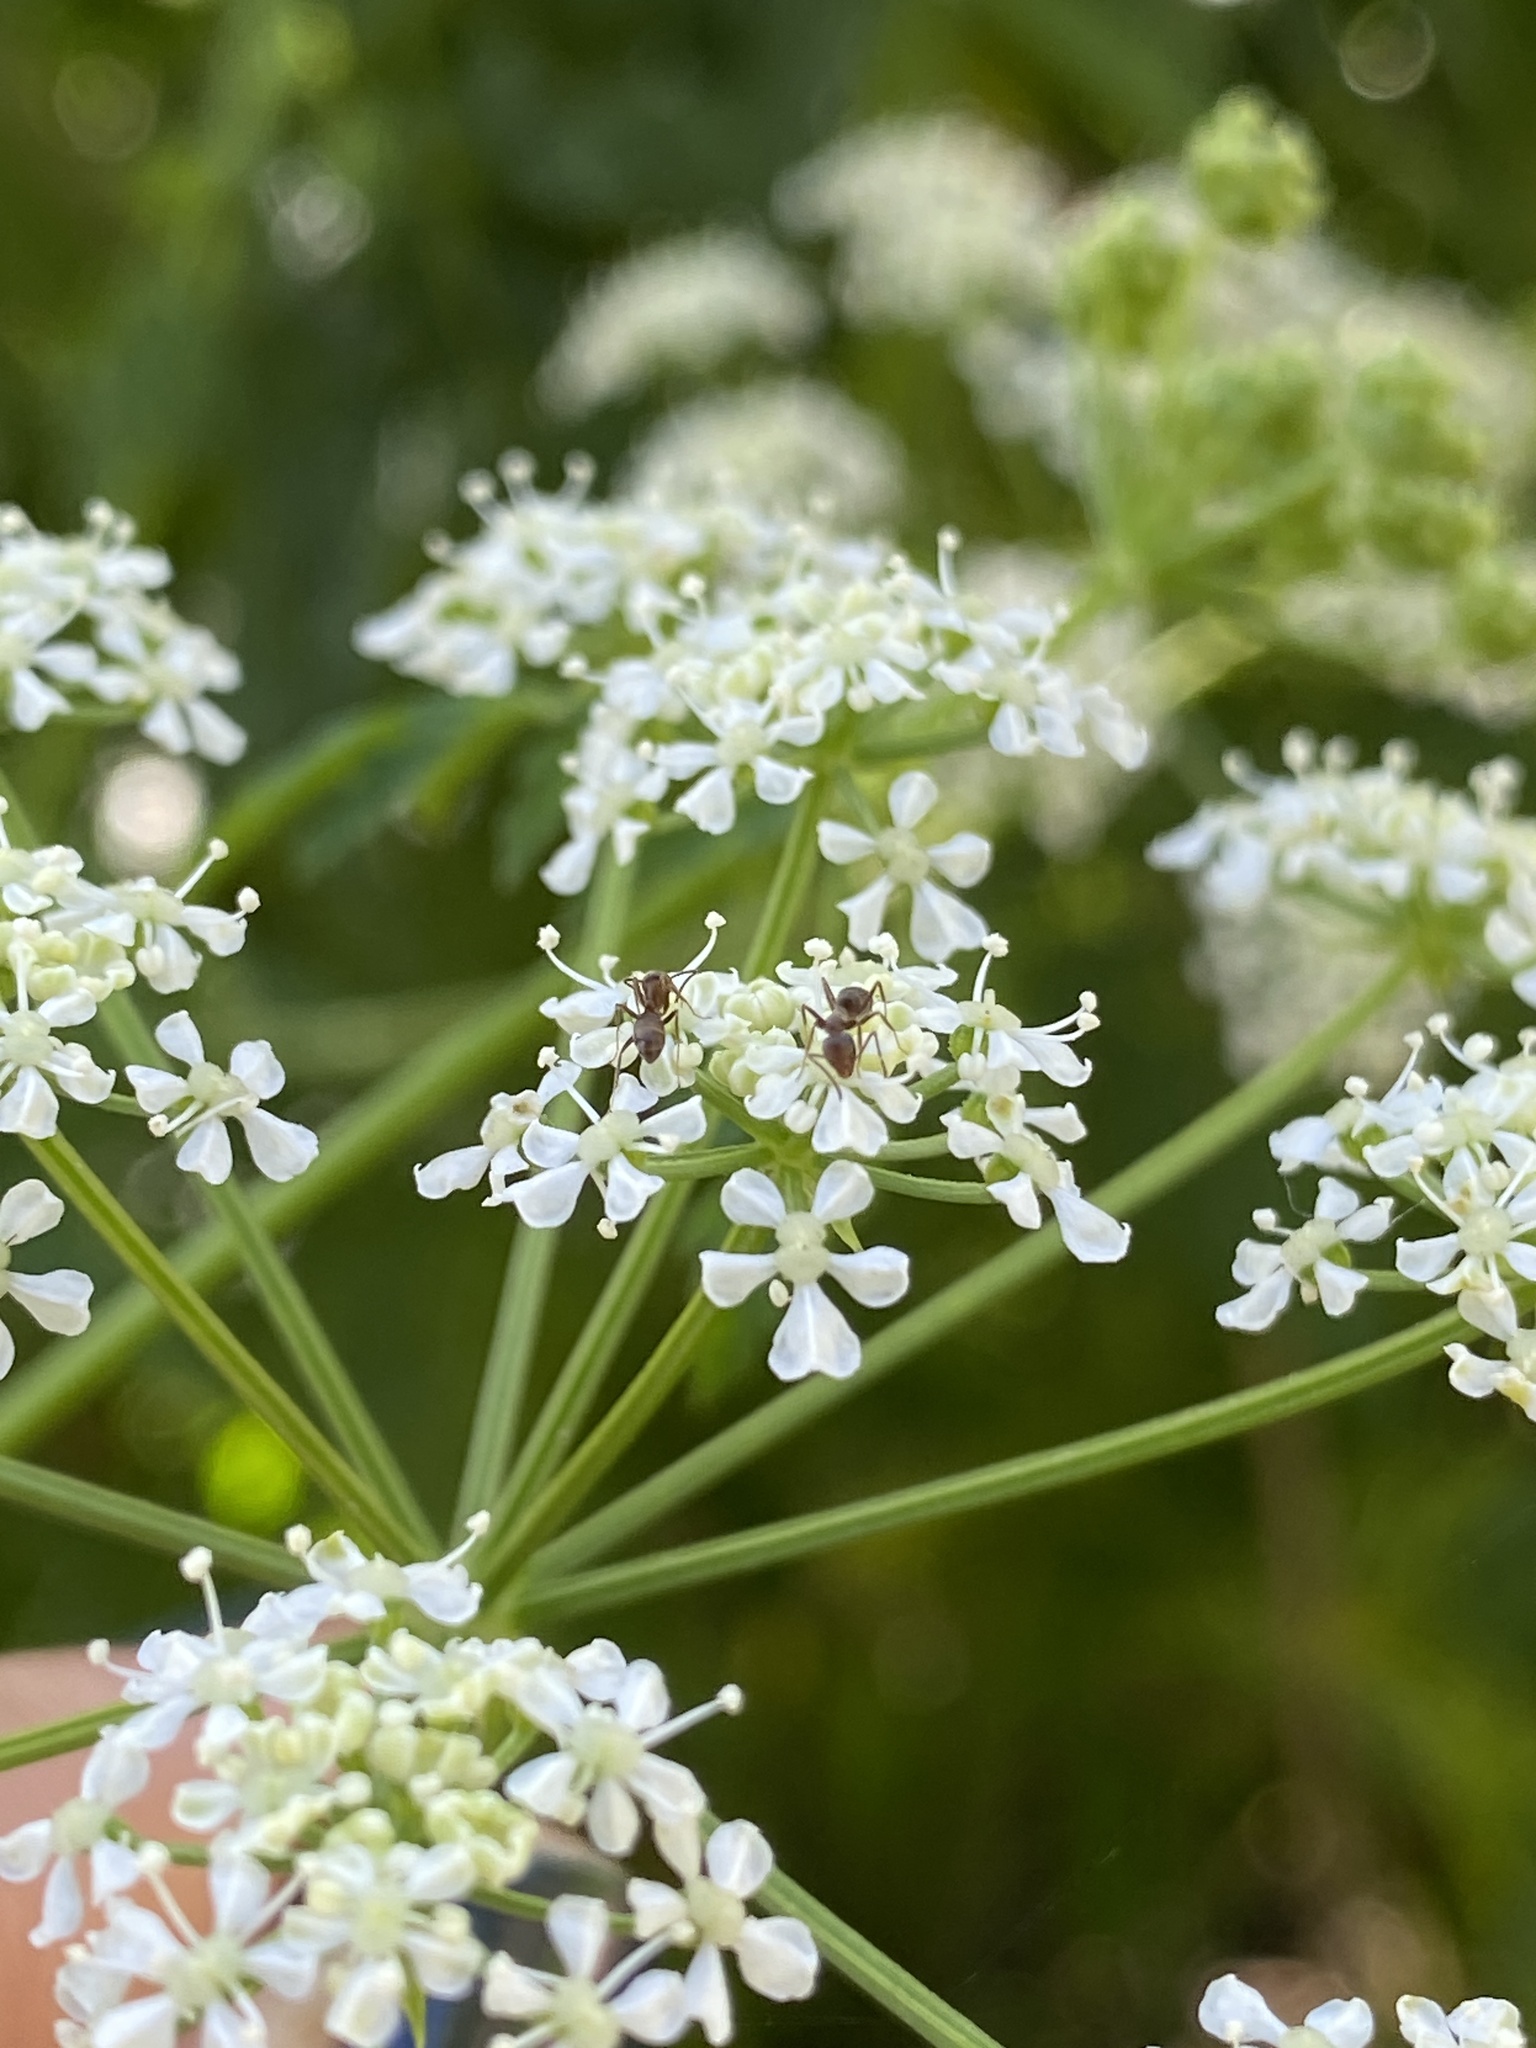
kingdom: Animalia
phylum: Arthropoda
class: Insecta
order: Hymenoptera
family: Formicidae
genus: Linepithema
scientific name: Linepithema humile
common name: Argentine ant
